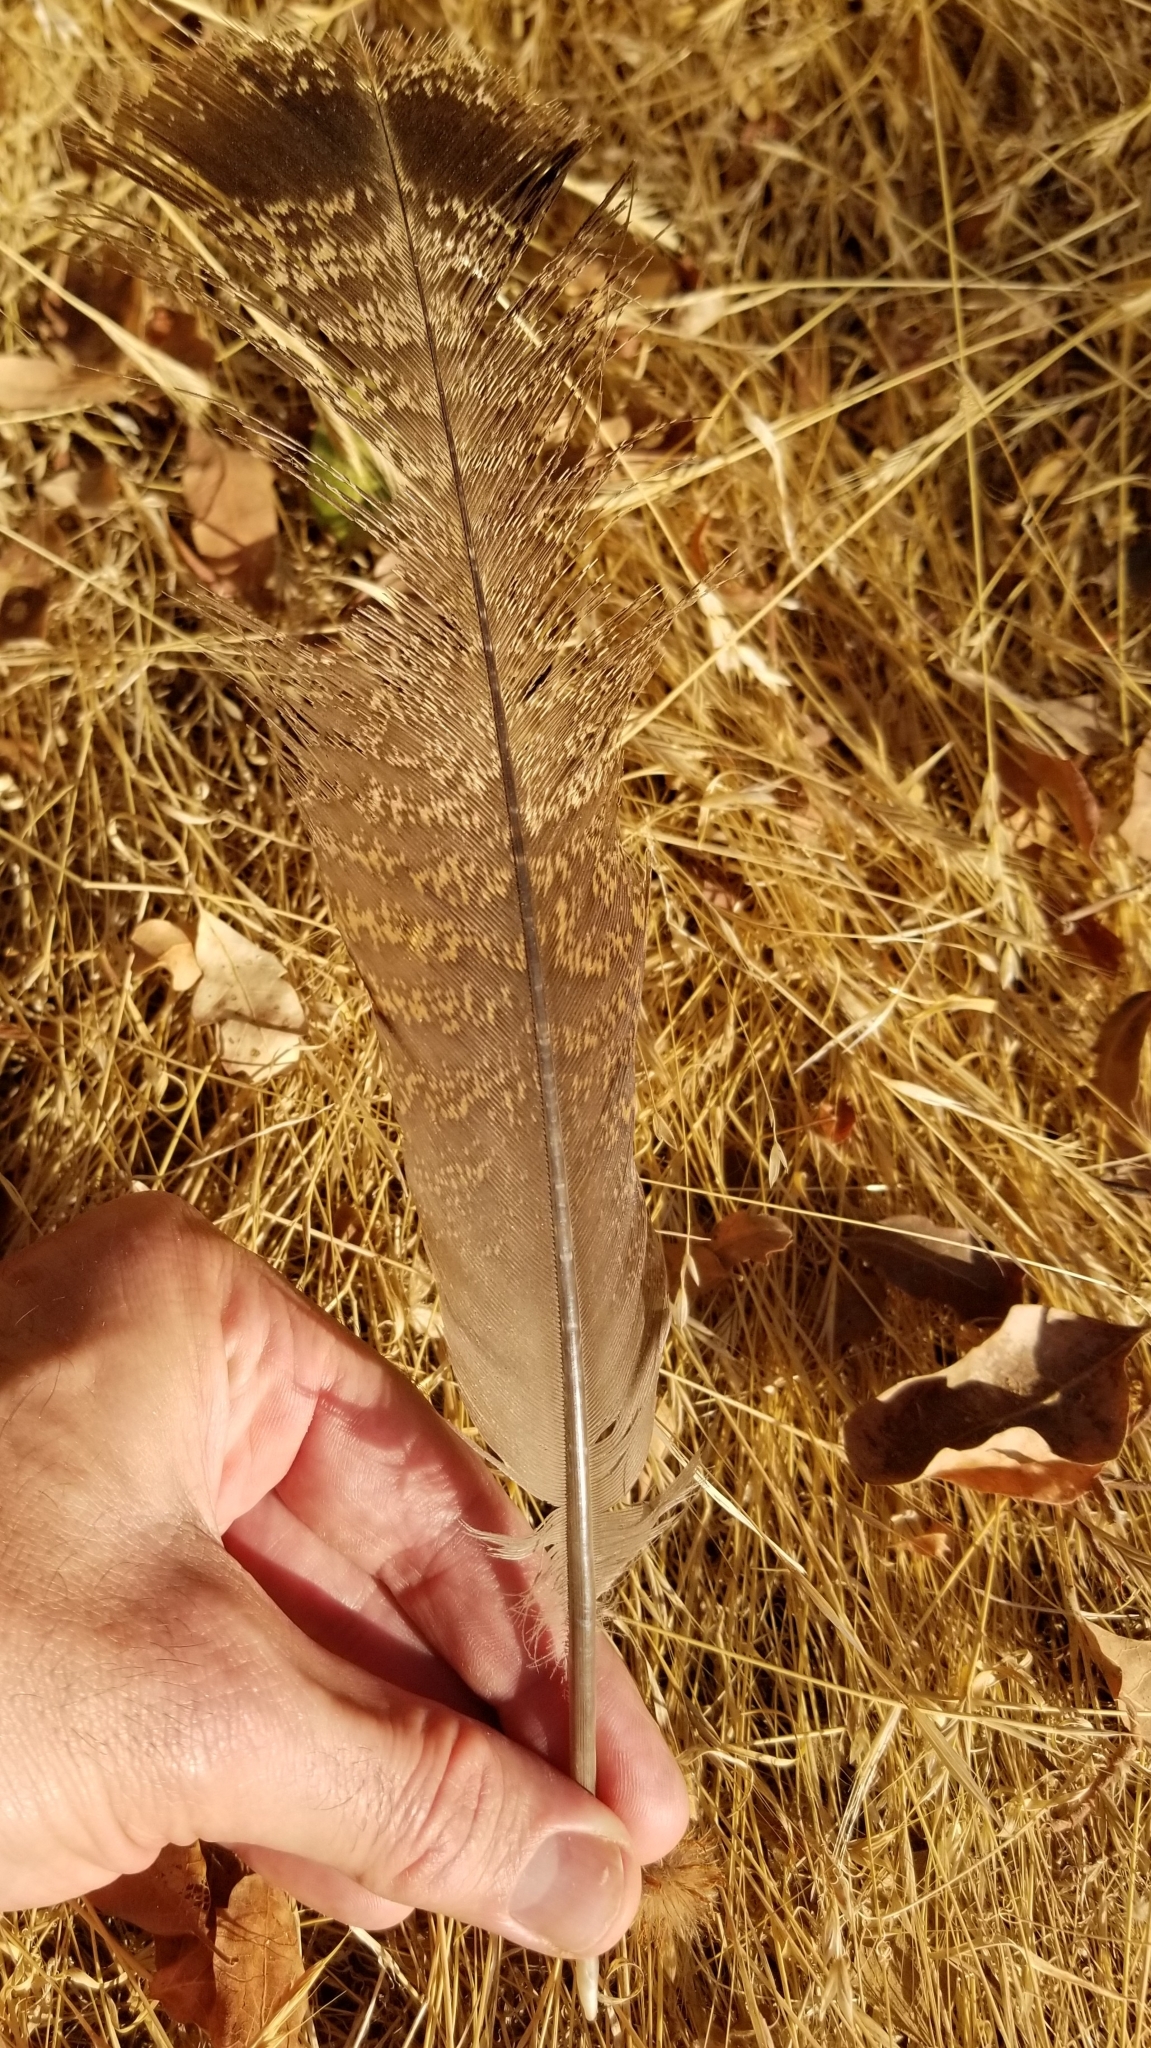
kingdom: Animalia
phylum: Chordata
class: Aves
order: Galliformes
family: Phasianidae
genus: Meleagris
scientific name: Meleagris gallopavo
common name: Wild turkey
